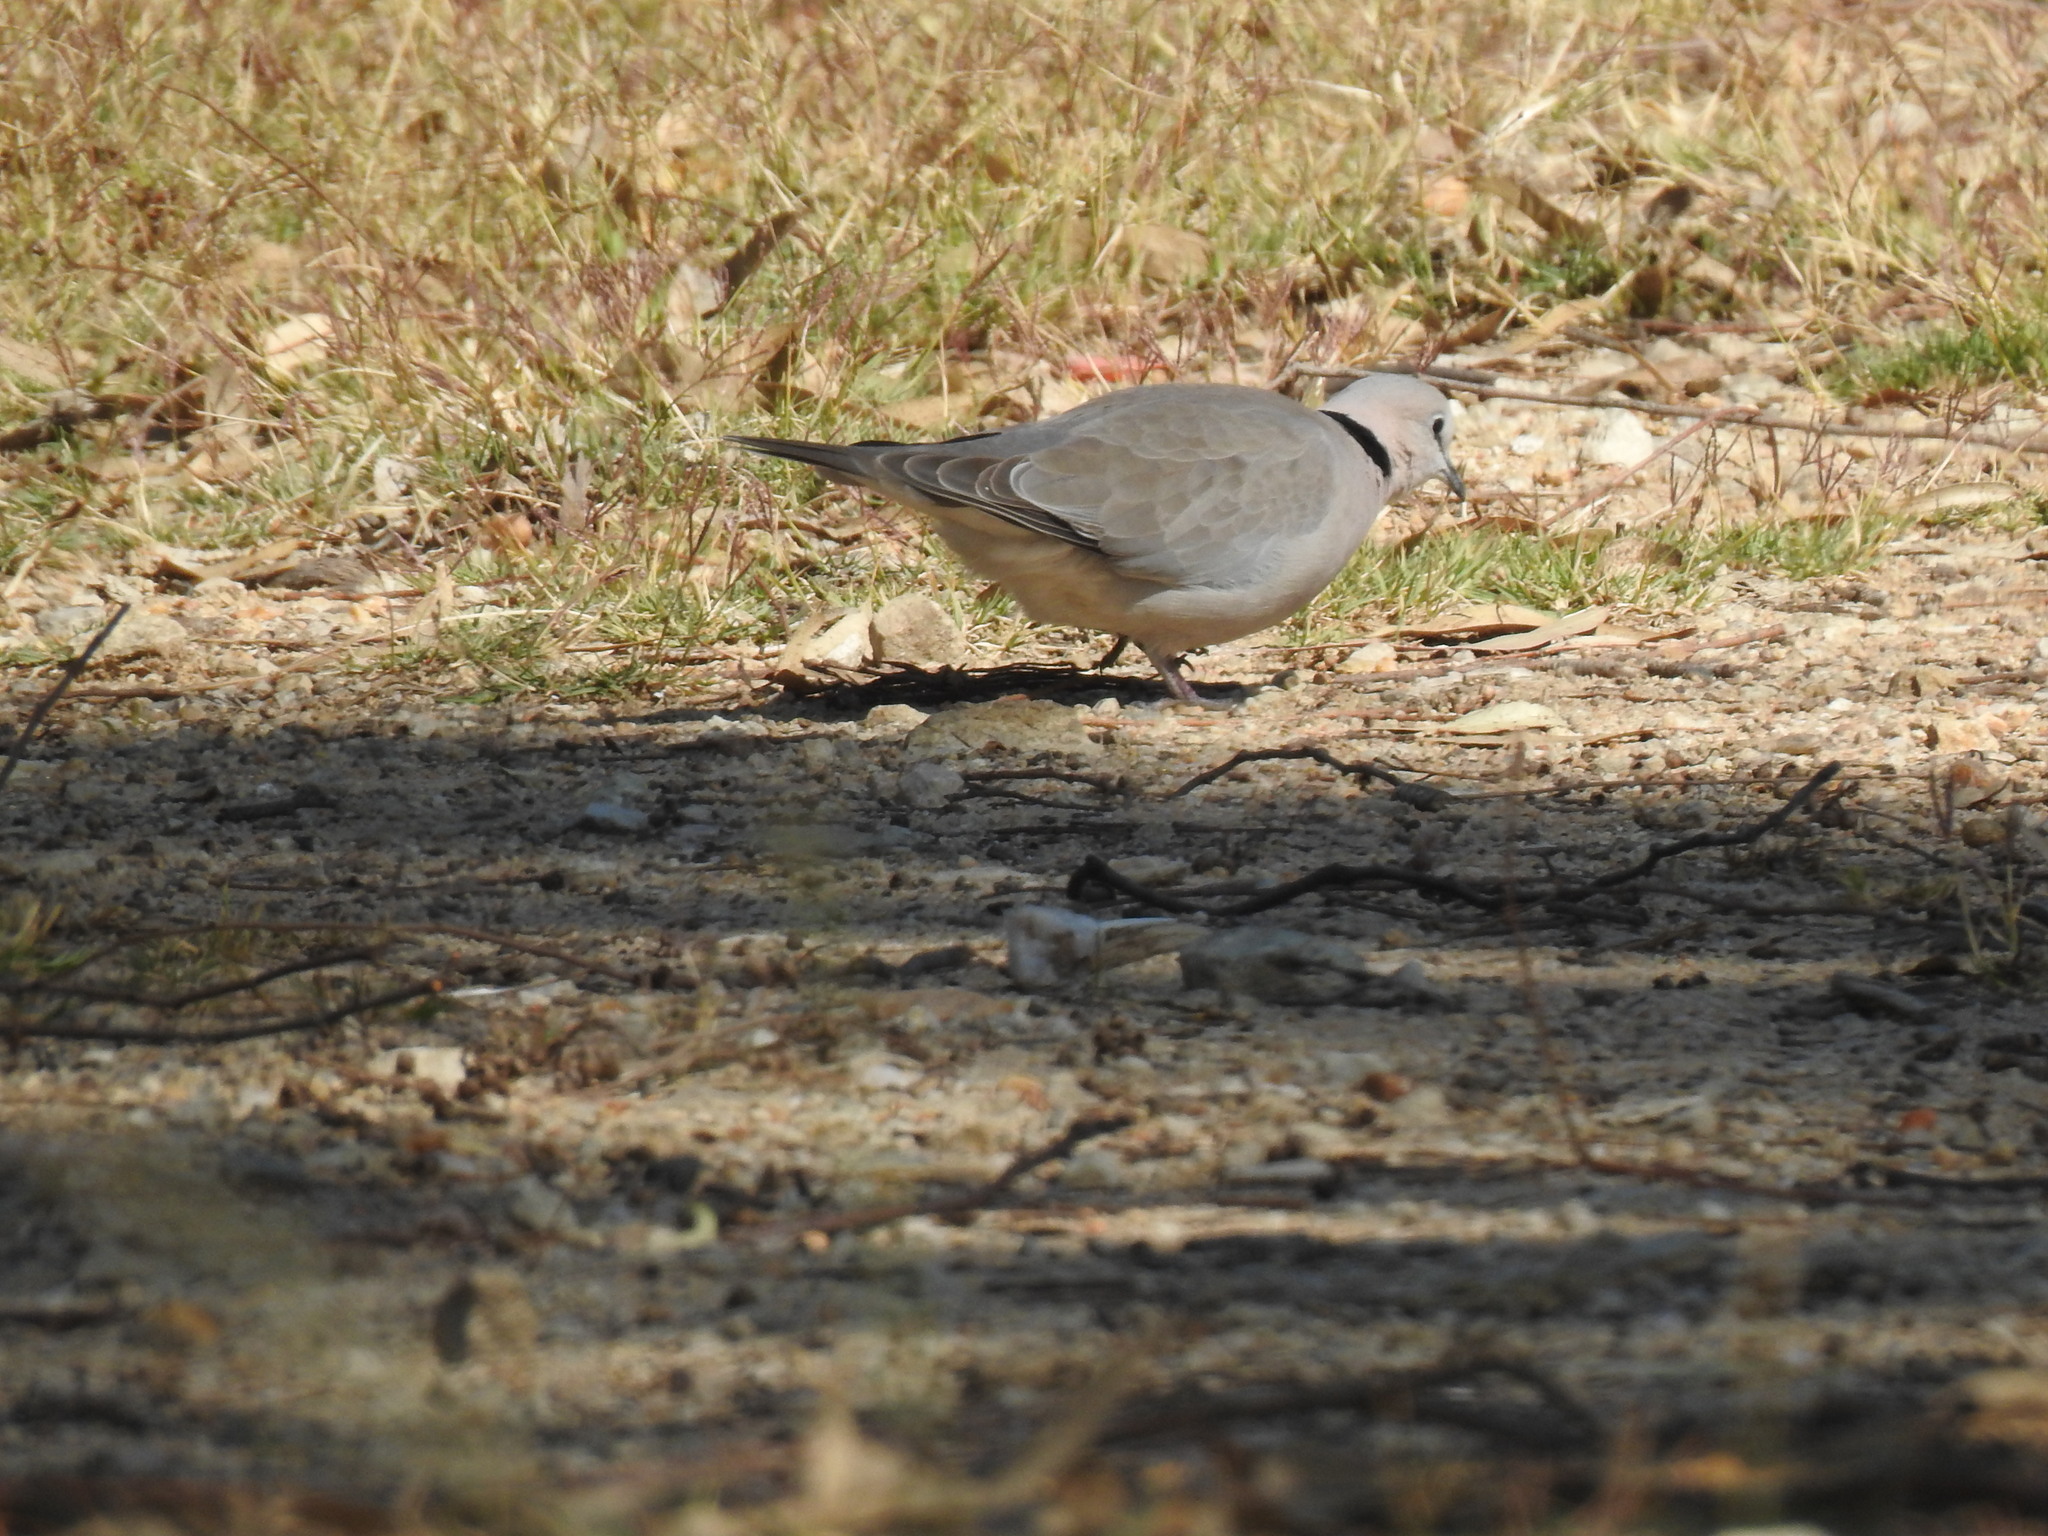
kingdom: Animalia
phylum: Chordata
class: Aves
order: Columbiformes
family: Columbidae
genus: Streptopelia
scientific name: Streptopelia capicola
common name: Ring-necked dove
